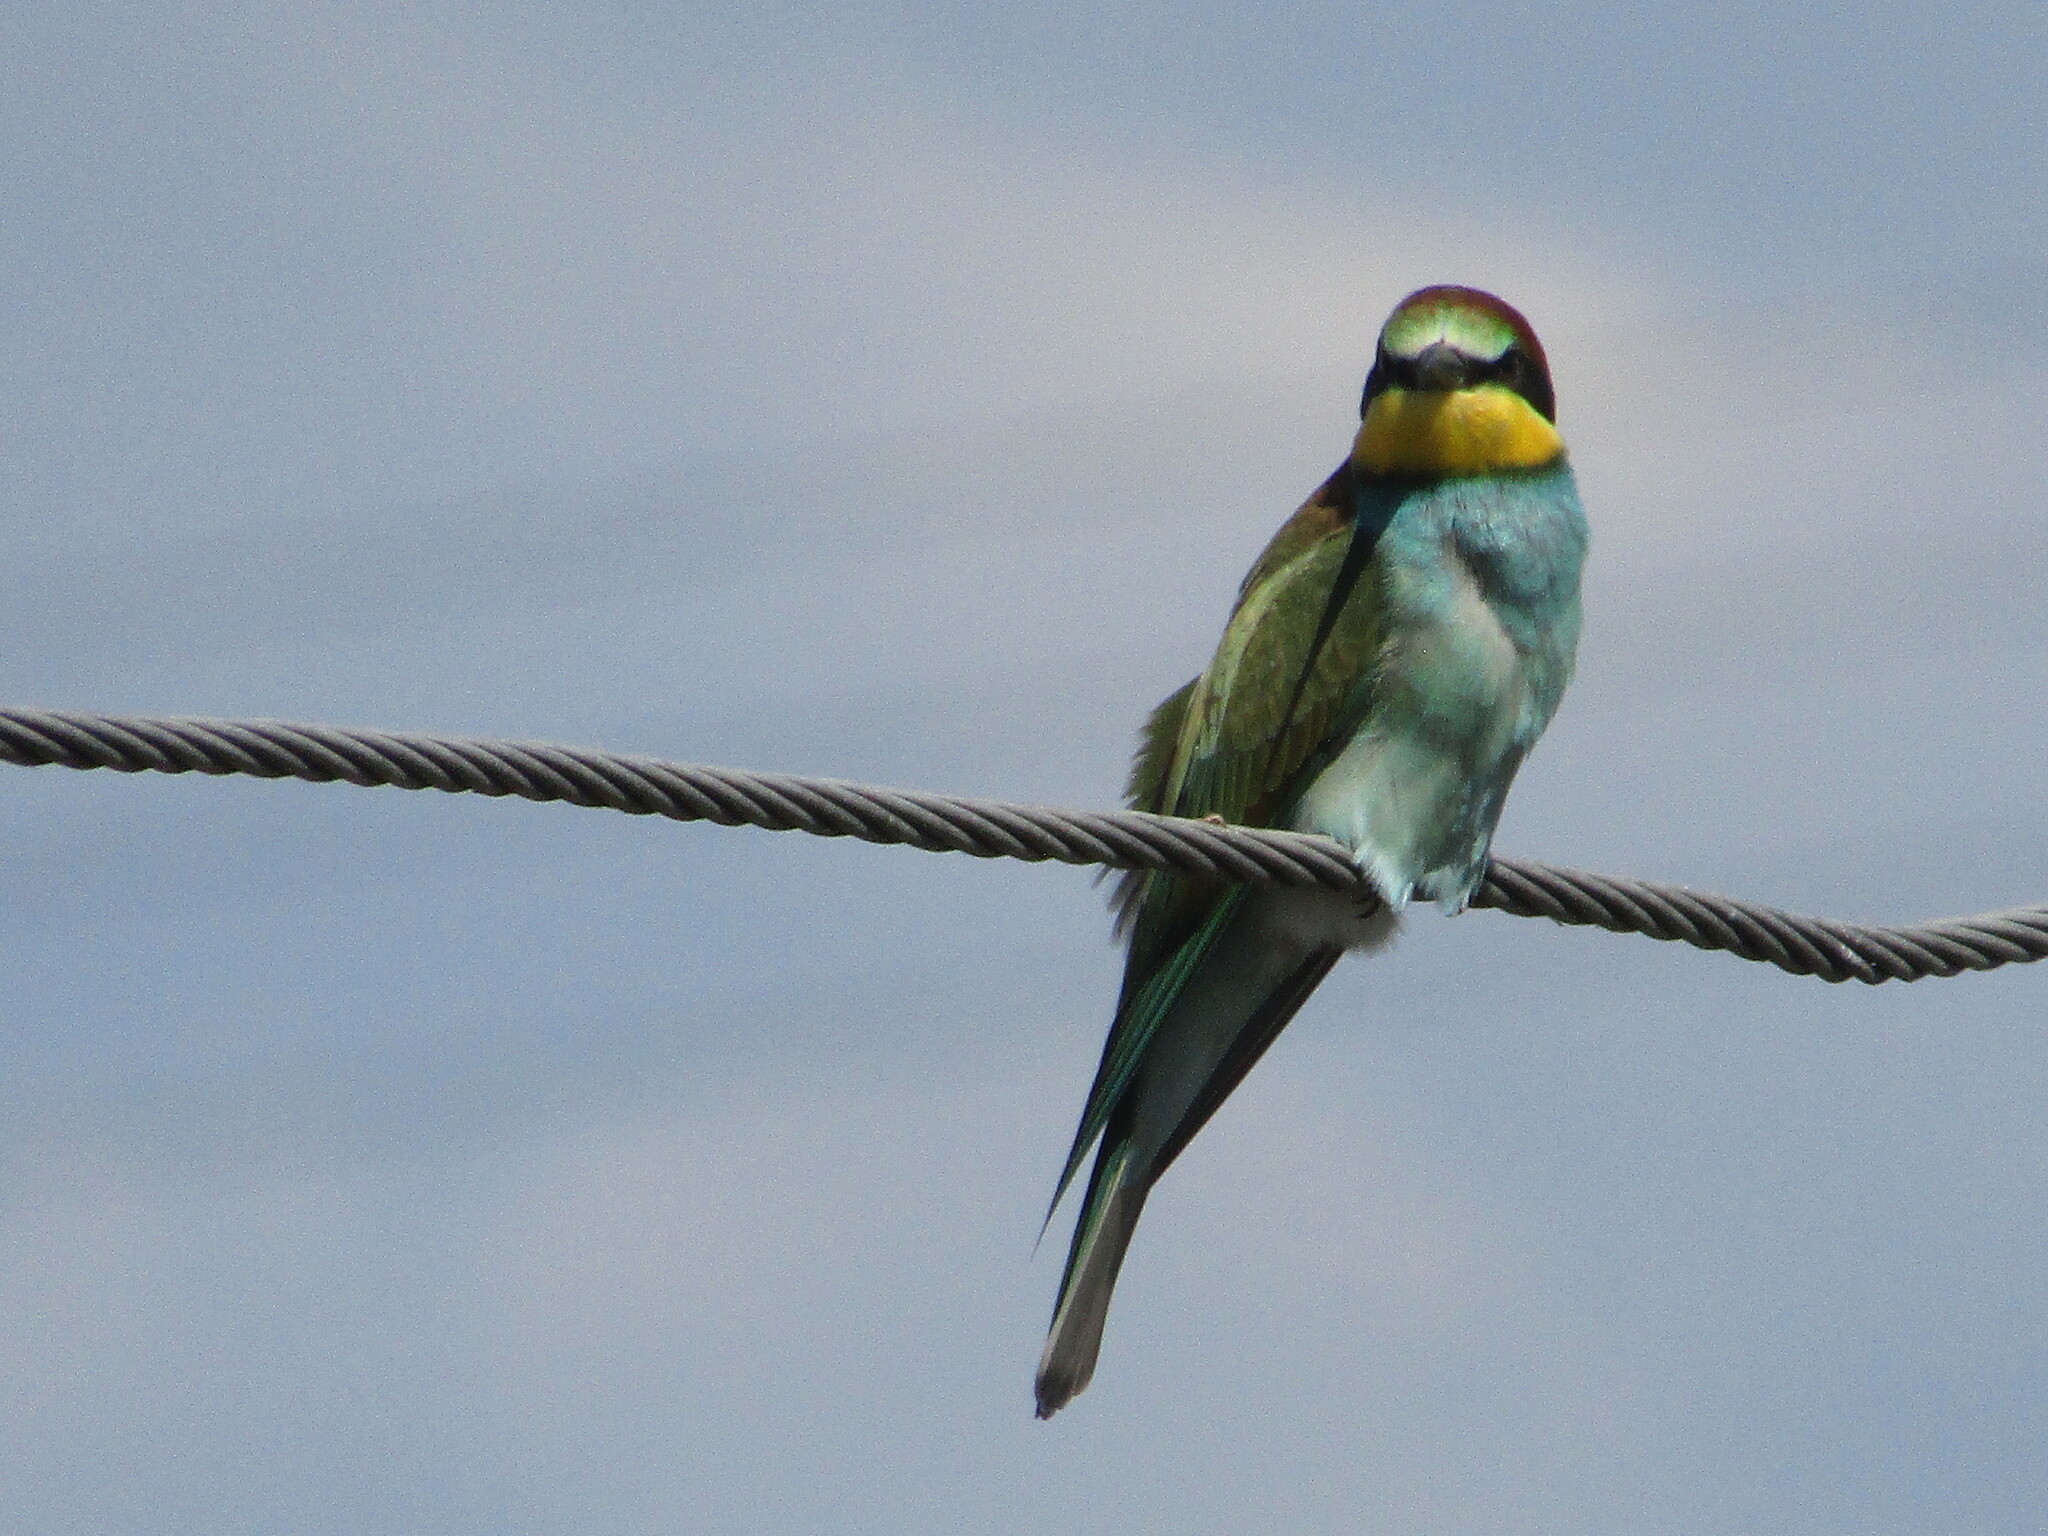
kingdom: Animalia
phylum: Chordata
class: Aves
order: Coraciiformes
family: Meropidae
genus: Merops
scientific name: Merops apiaster
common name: European bee-eater
